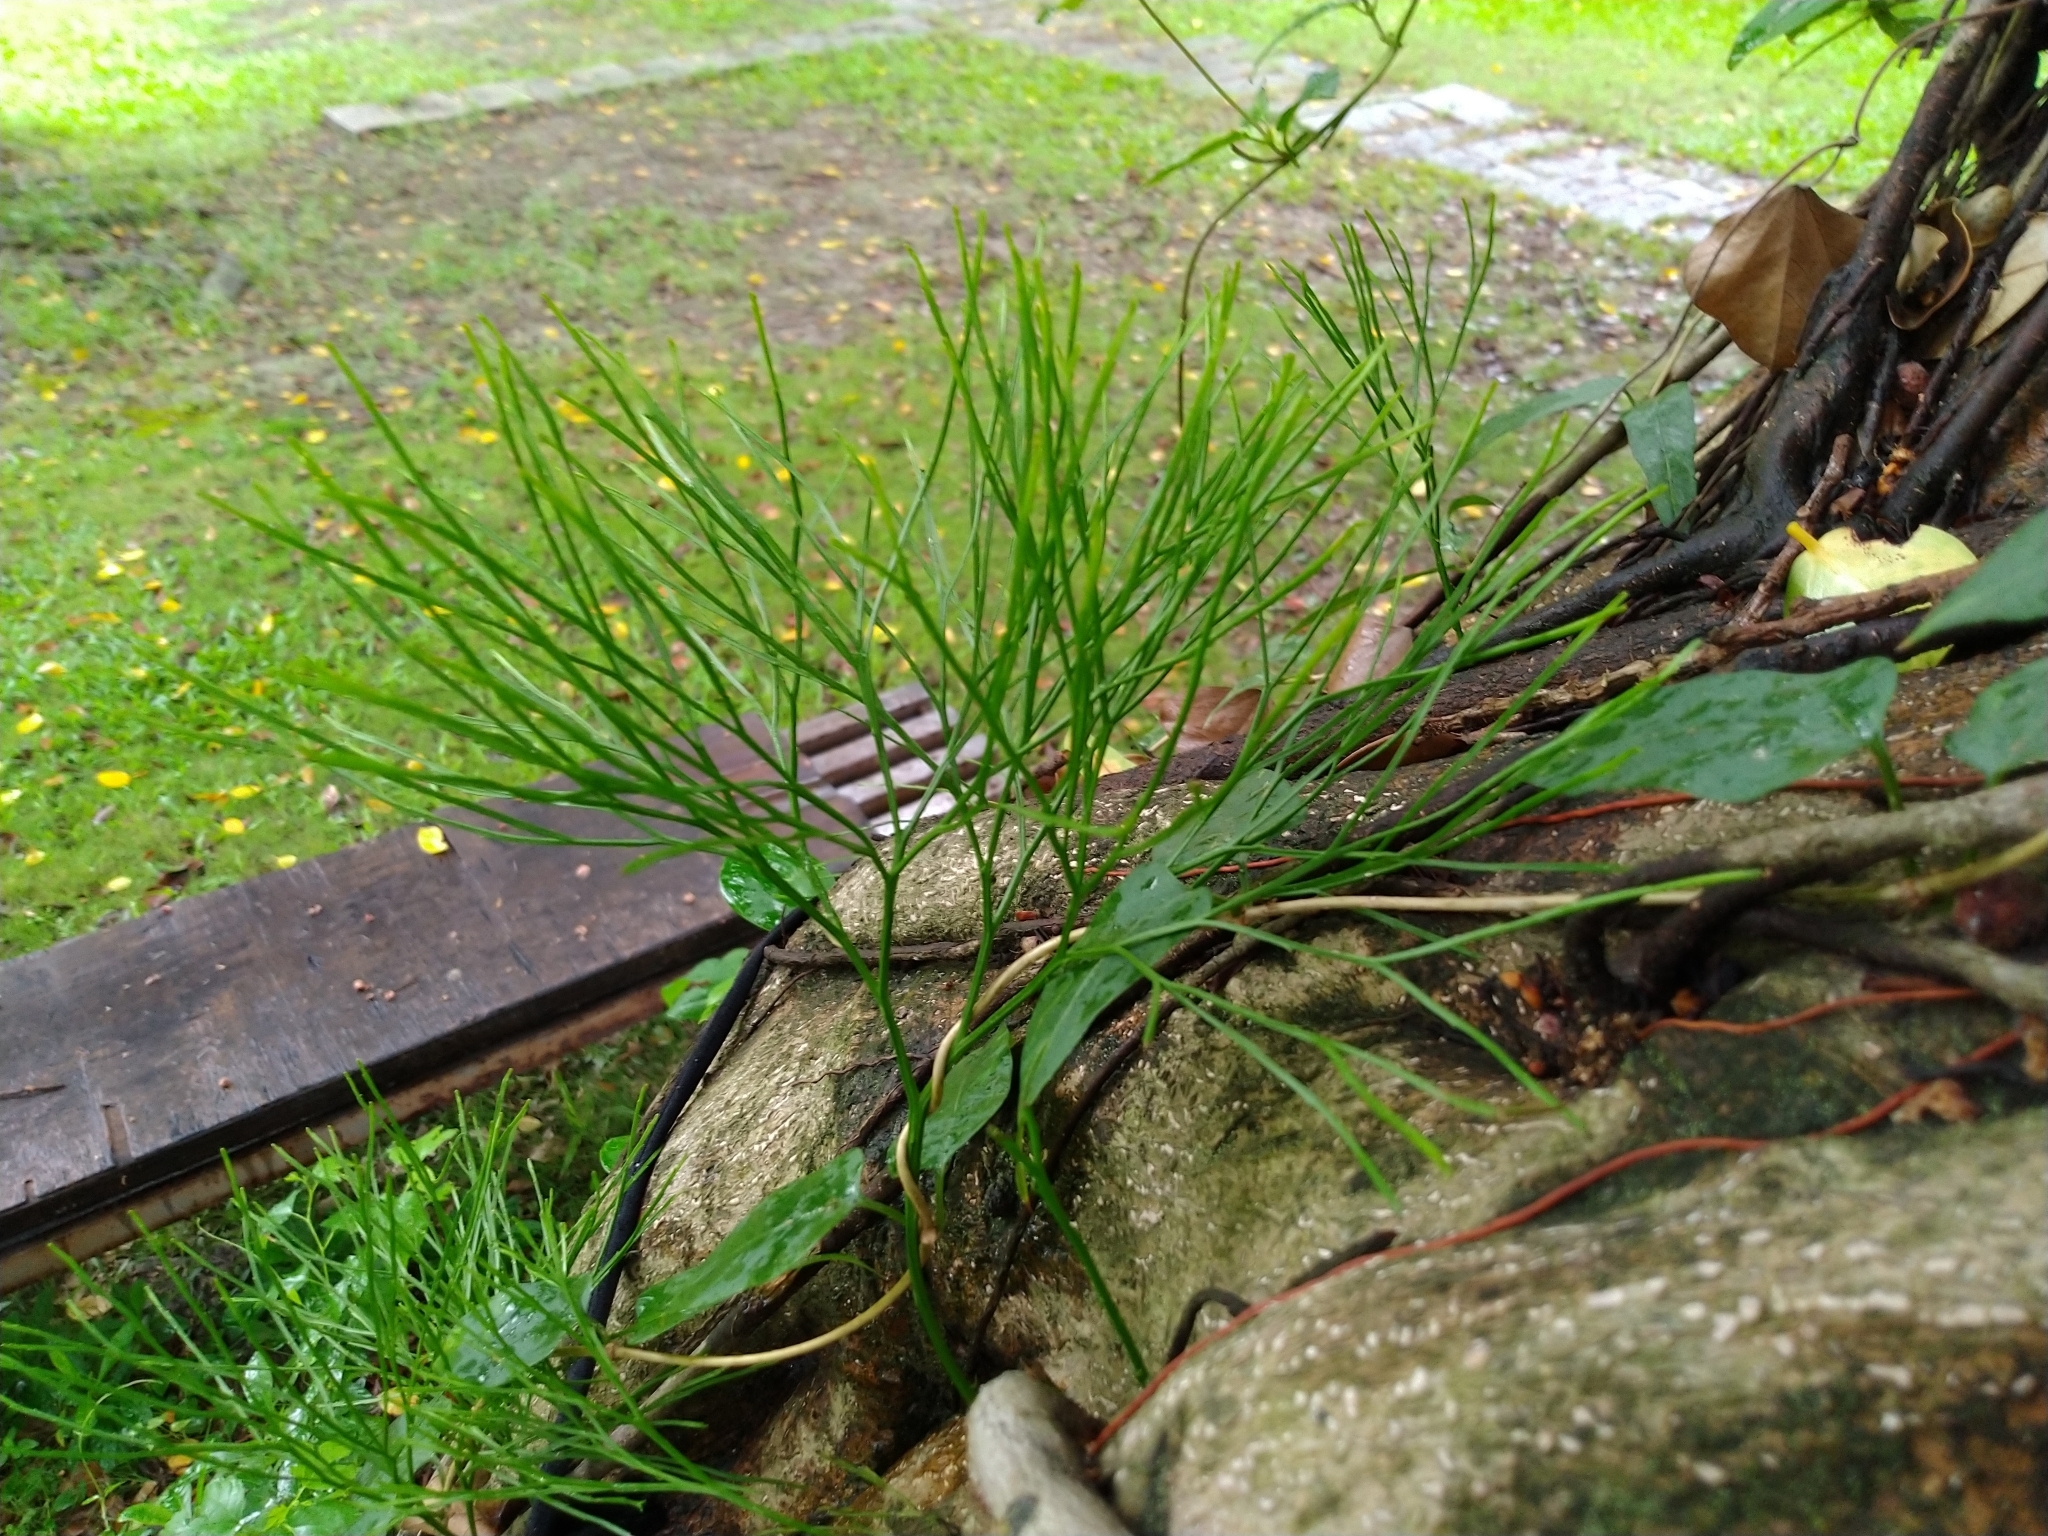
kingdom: Plantae
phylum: Tracheophyta
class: Polypodiopsida
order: Psilotales
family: Psilotaceae
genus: Psilotum
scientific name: Psilotum nudum
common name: Skeleton fork fern
